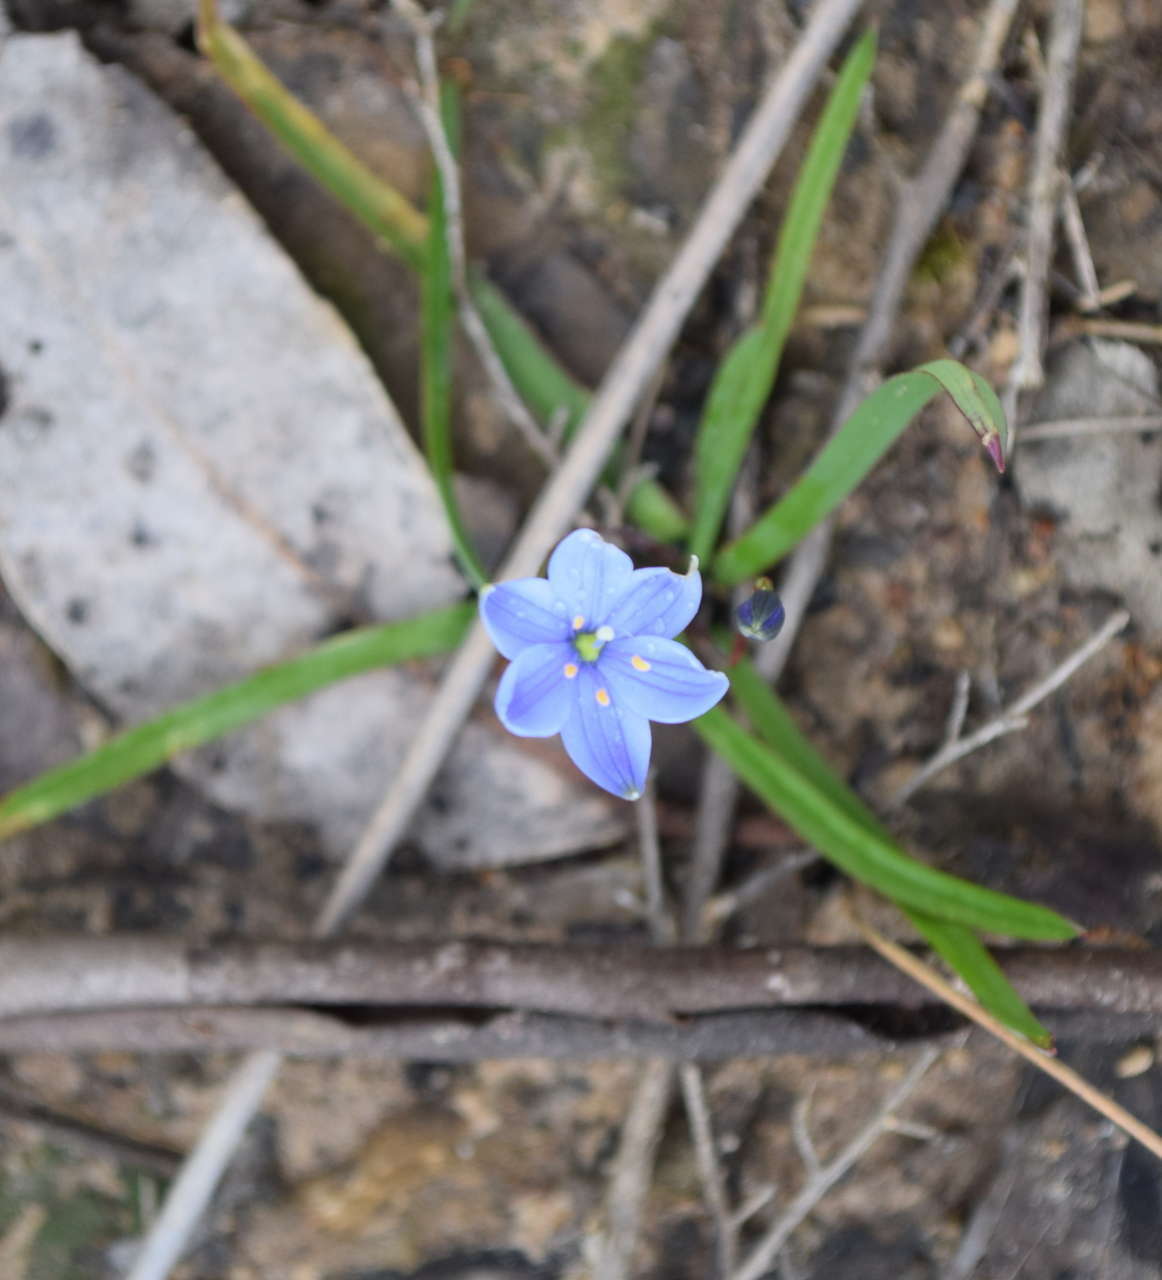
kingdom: Plantae
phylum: Tracheophyta
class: Liliopsida
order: Asparagales
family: Asphodelaceae
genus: Chamaescilla
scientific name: Chamaescilla corymbosa
